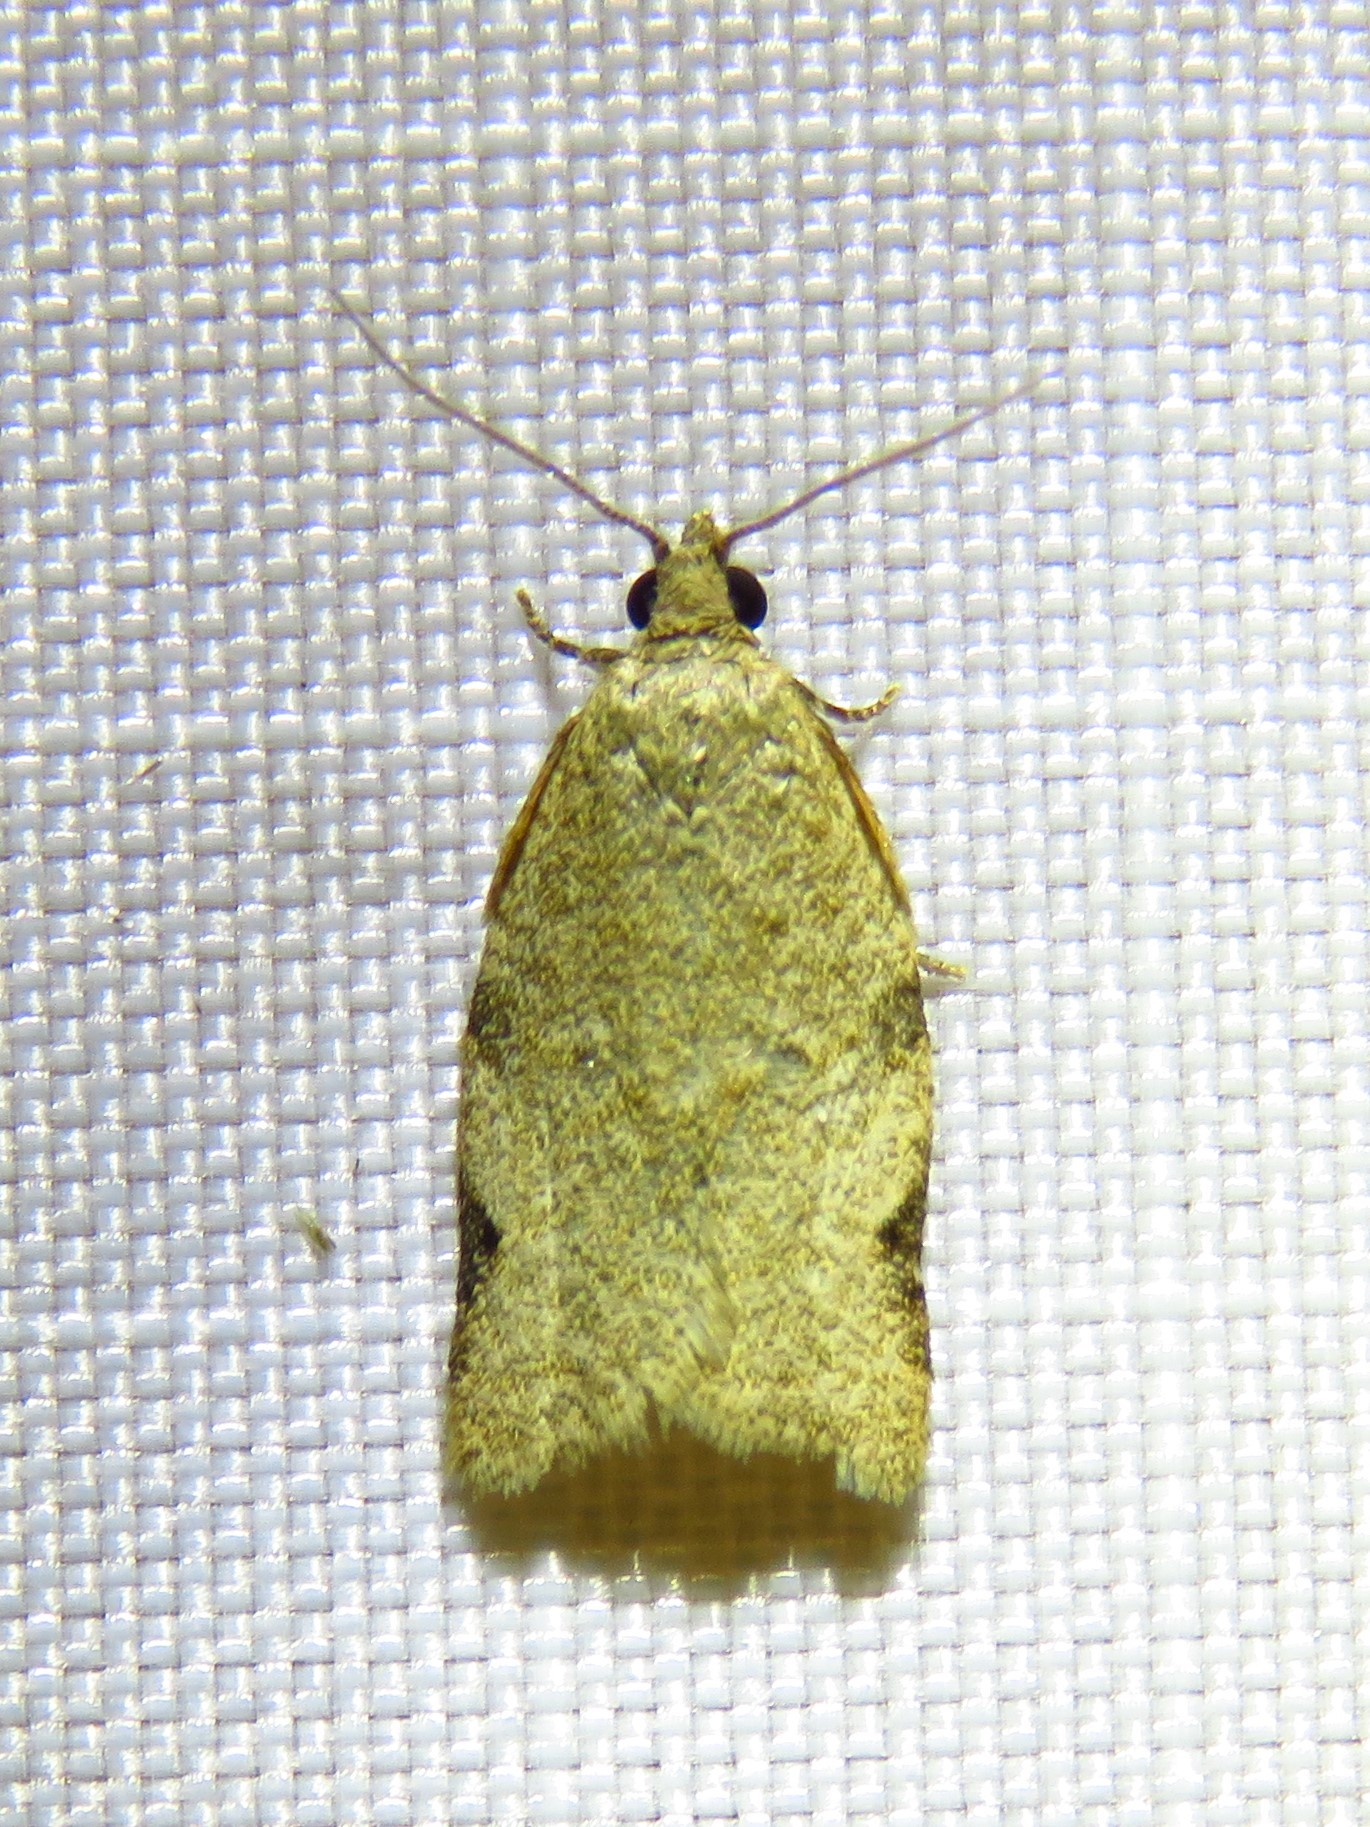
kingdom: Animalia
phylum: Arthropoda
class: Insecta
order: Lepidoptera
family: Tortricidae
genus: Clepsis
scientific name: Clepsis virescana
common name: Greenish apple moth
